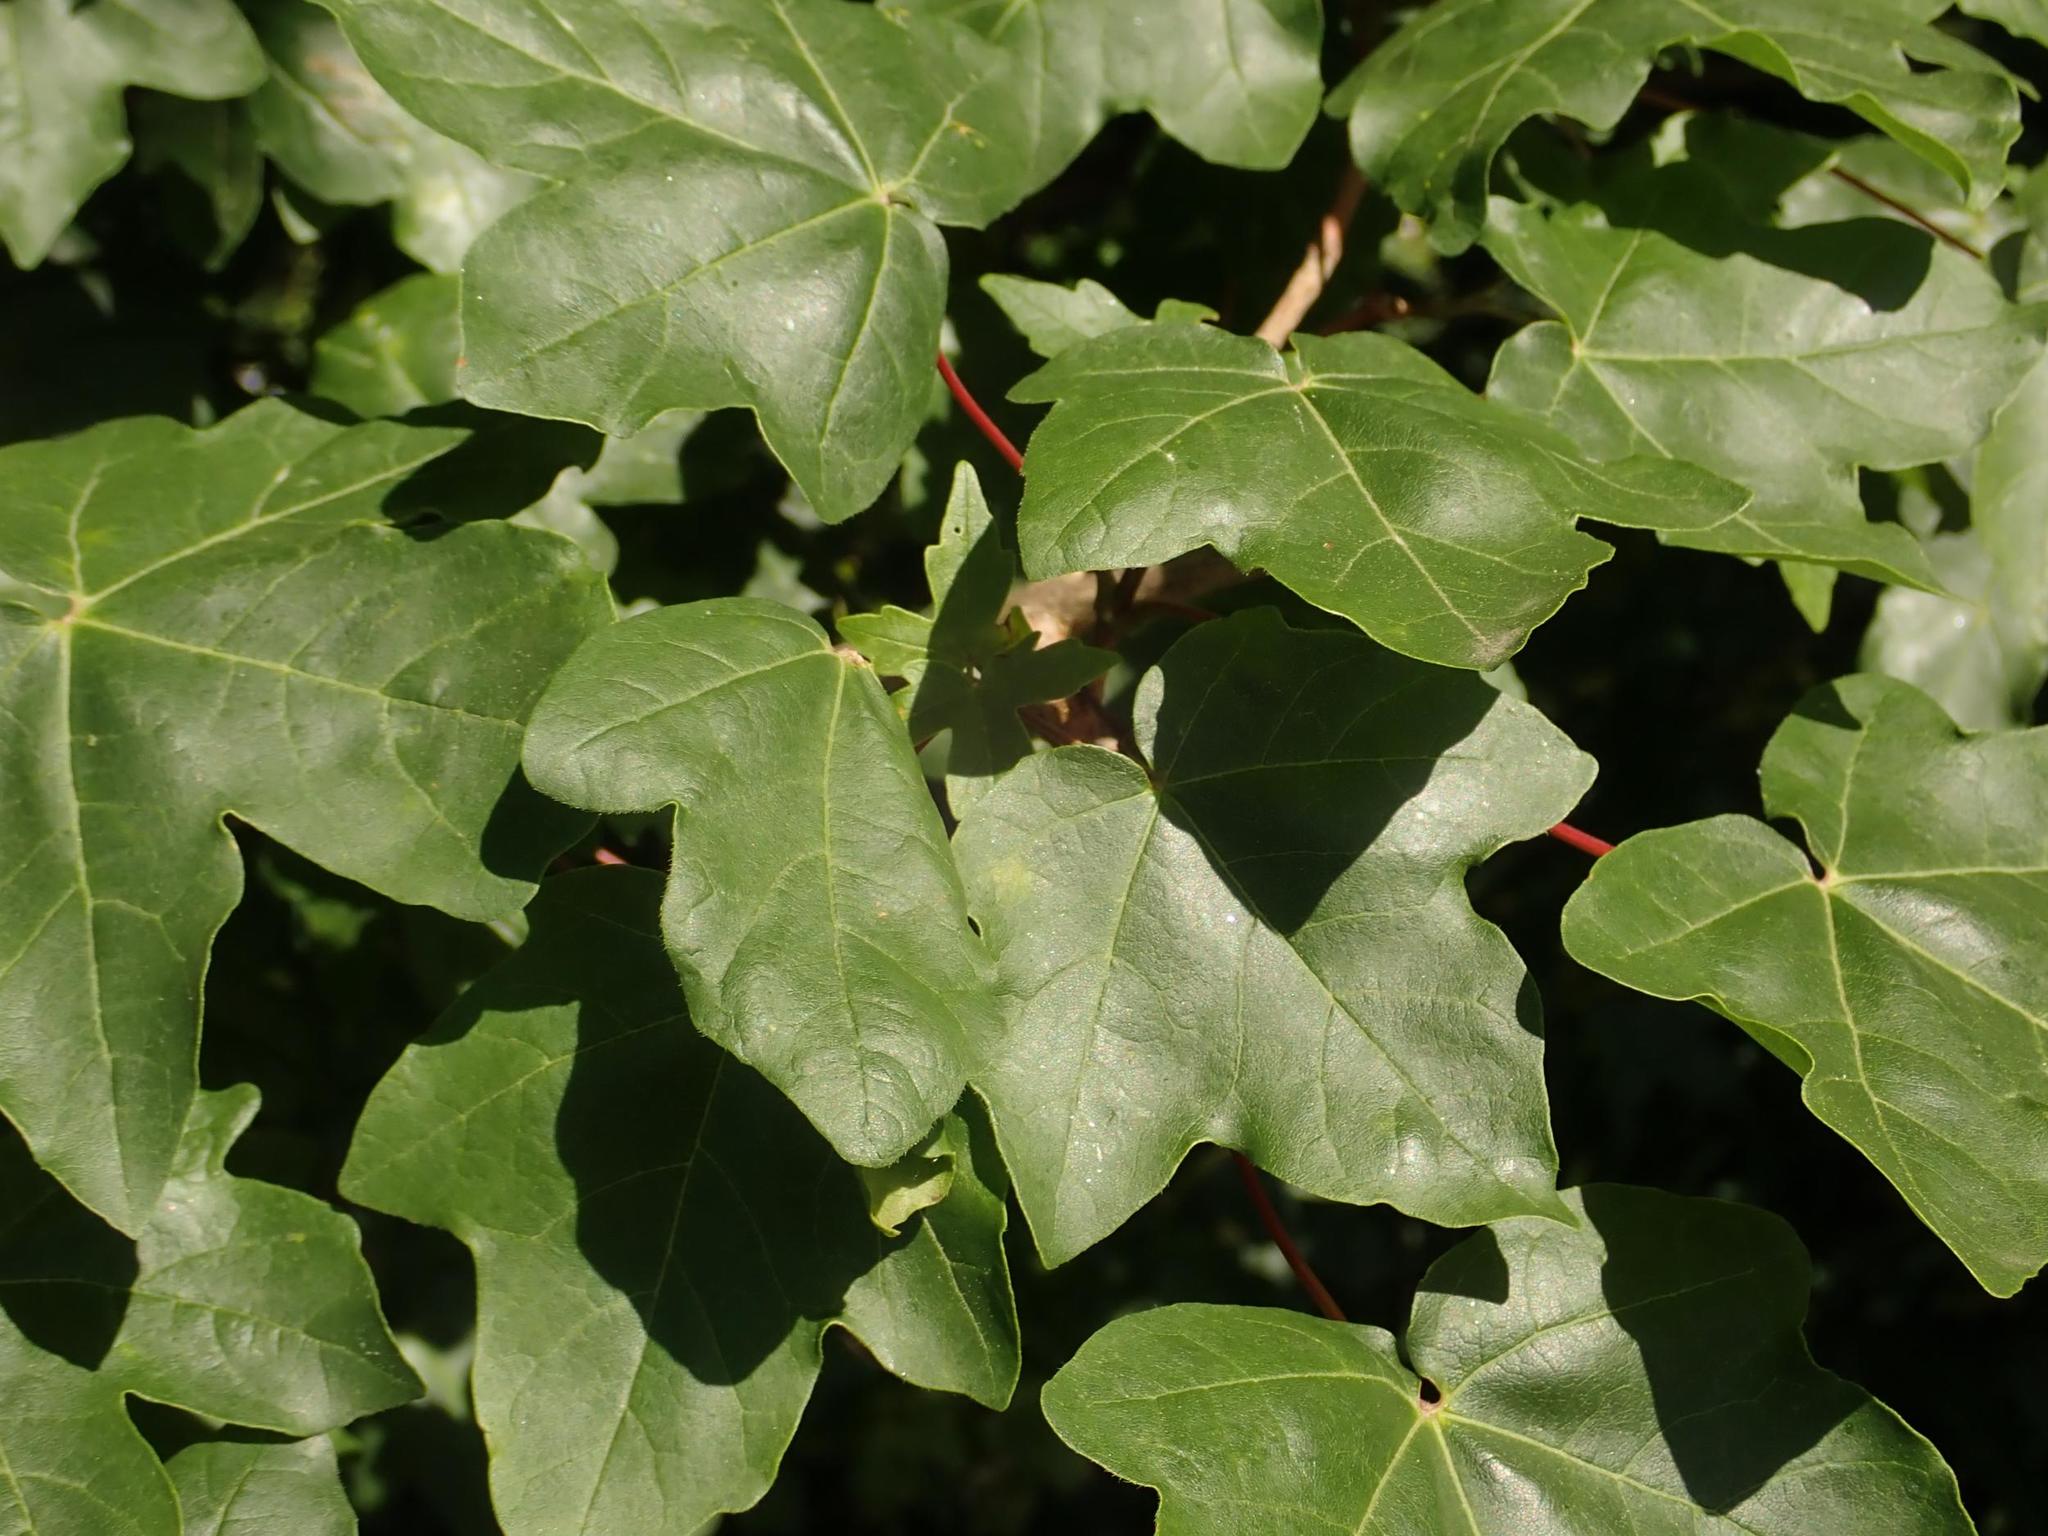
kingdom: Plantae
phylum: Tracheophyta
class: Magnoliopsida
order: Sapindales
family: Sapindaceae
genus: Acer
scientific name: Acer campestre
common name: Field maple
